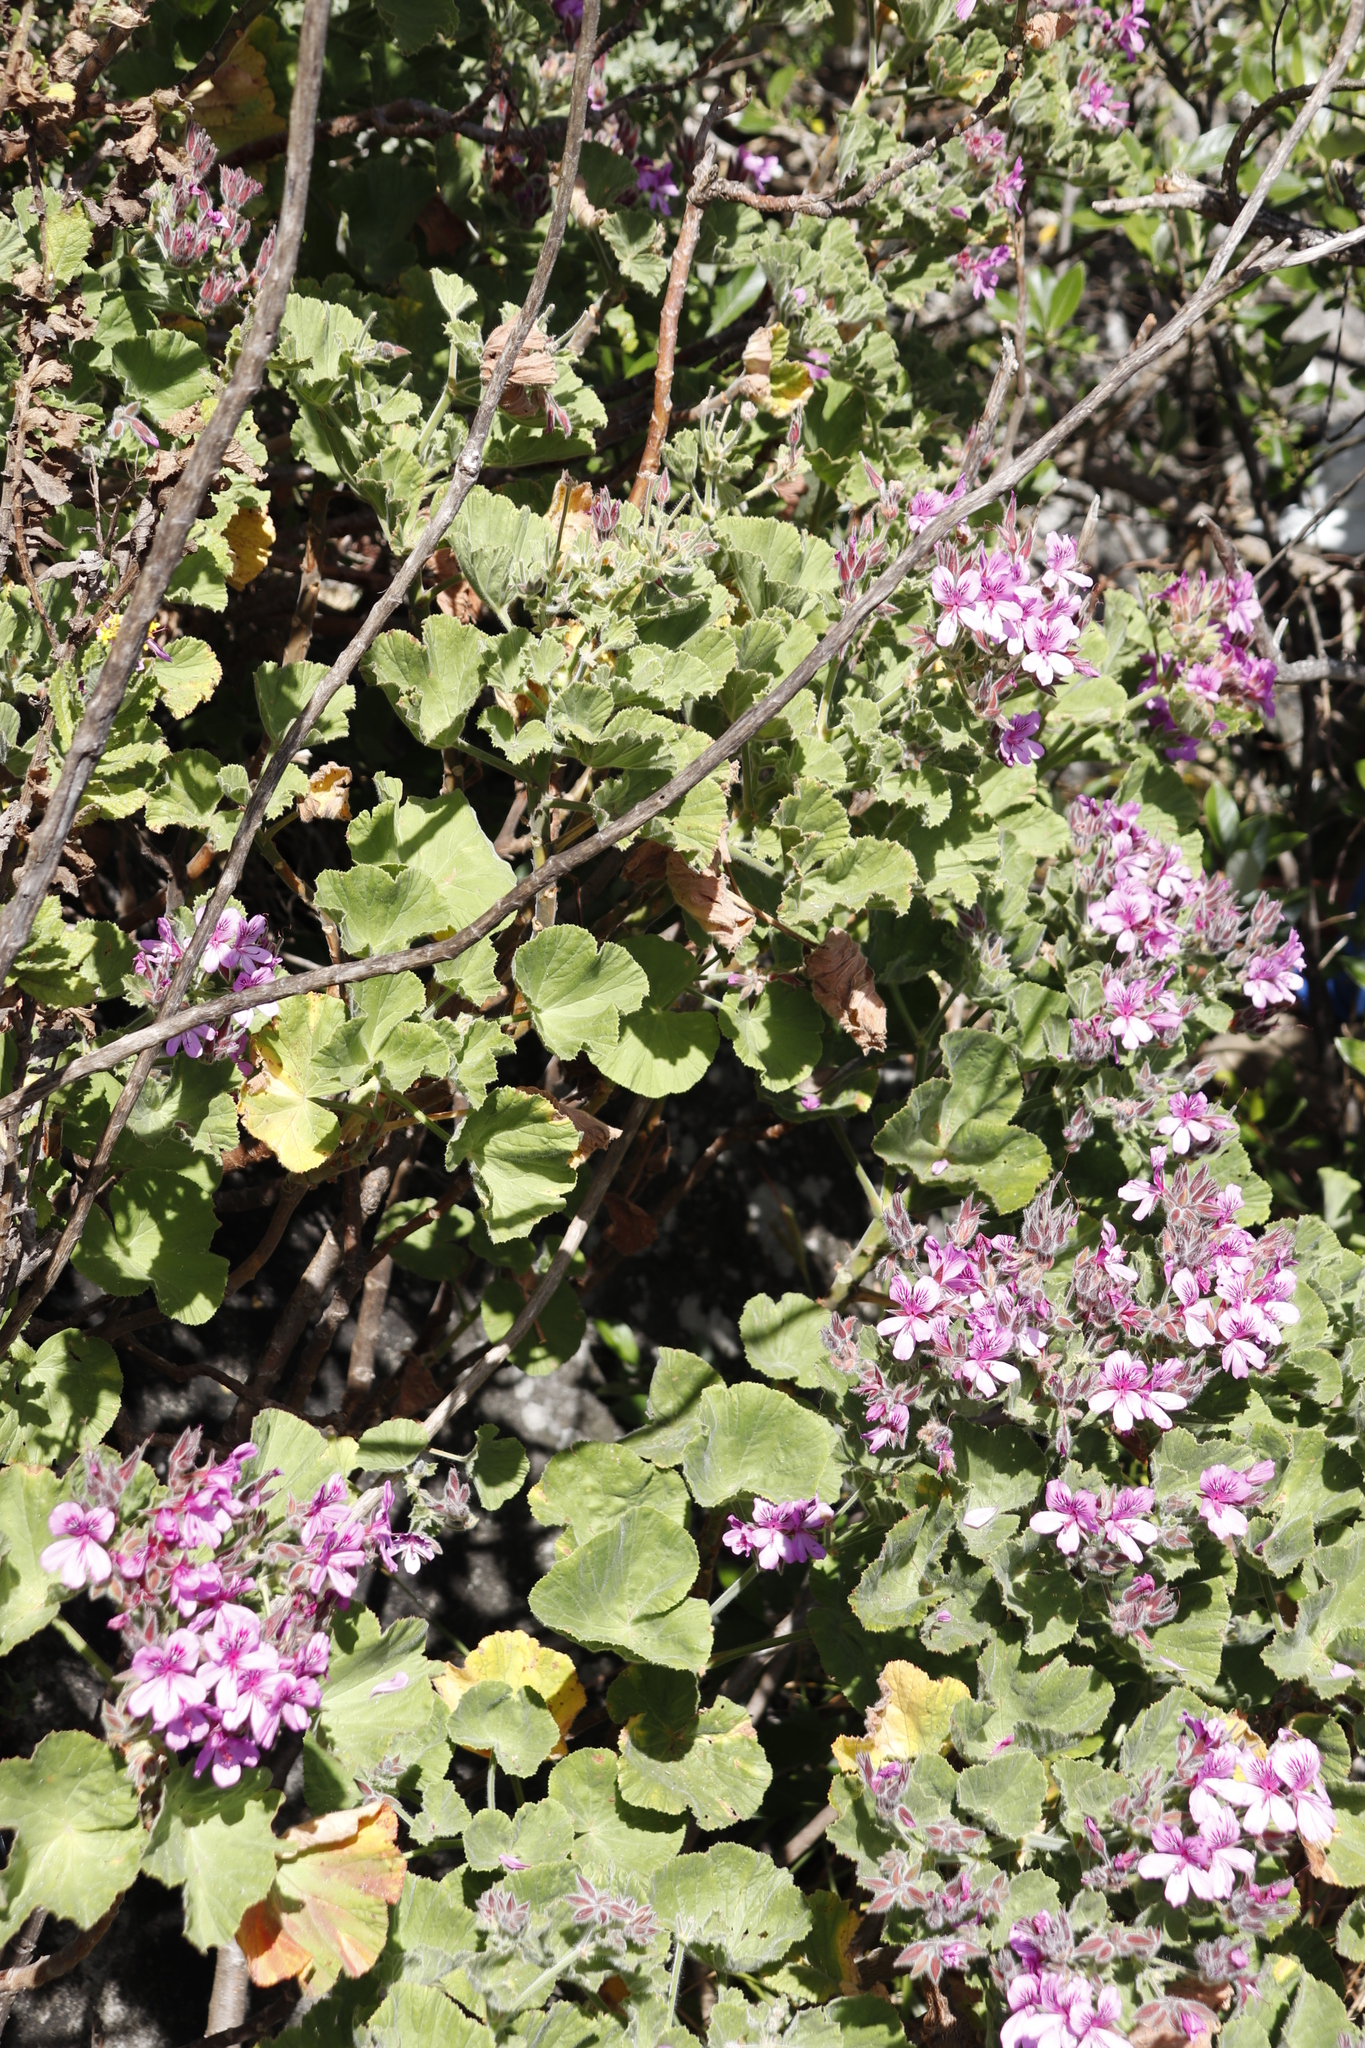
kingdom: Plantae
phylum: Tracheophyta
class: Magnoliopsida
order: Geraniales
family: Geraniaceae
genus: Pelargonium
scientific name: Pelargonium cucullatum
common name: Tree pelargonium
